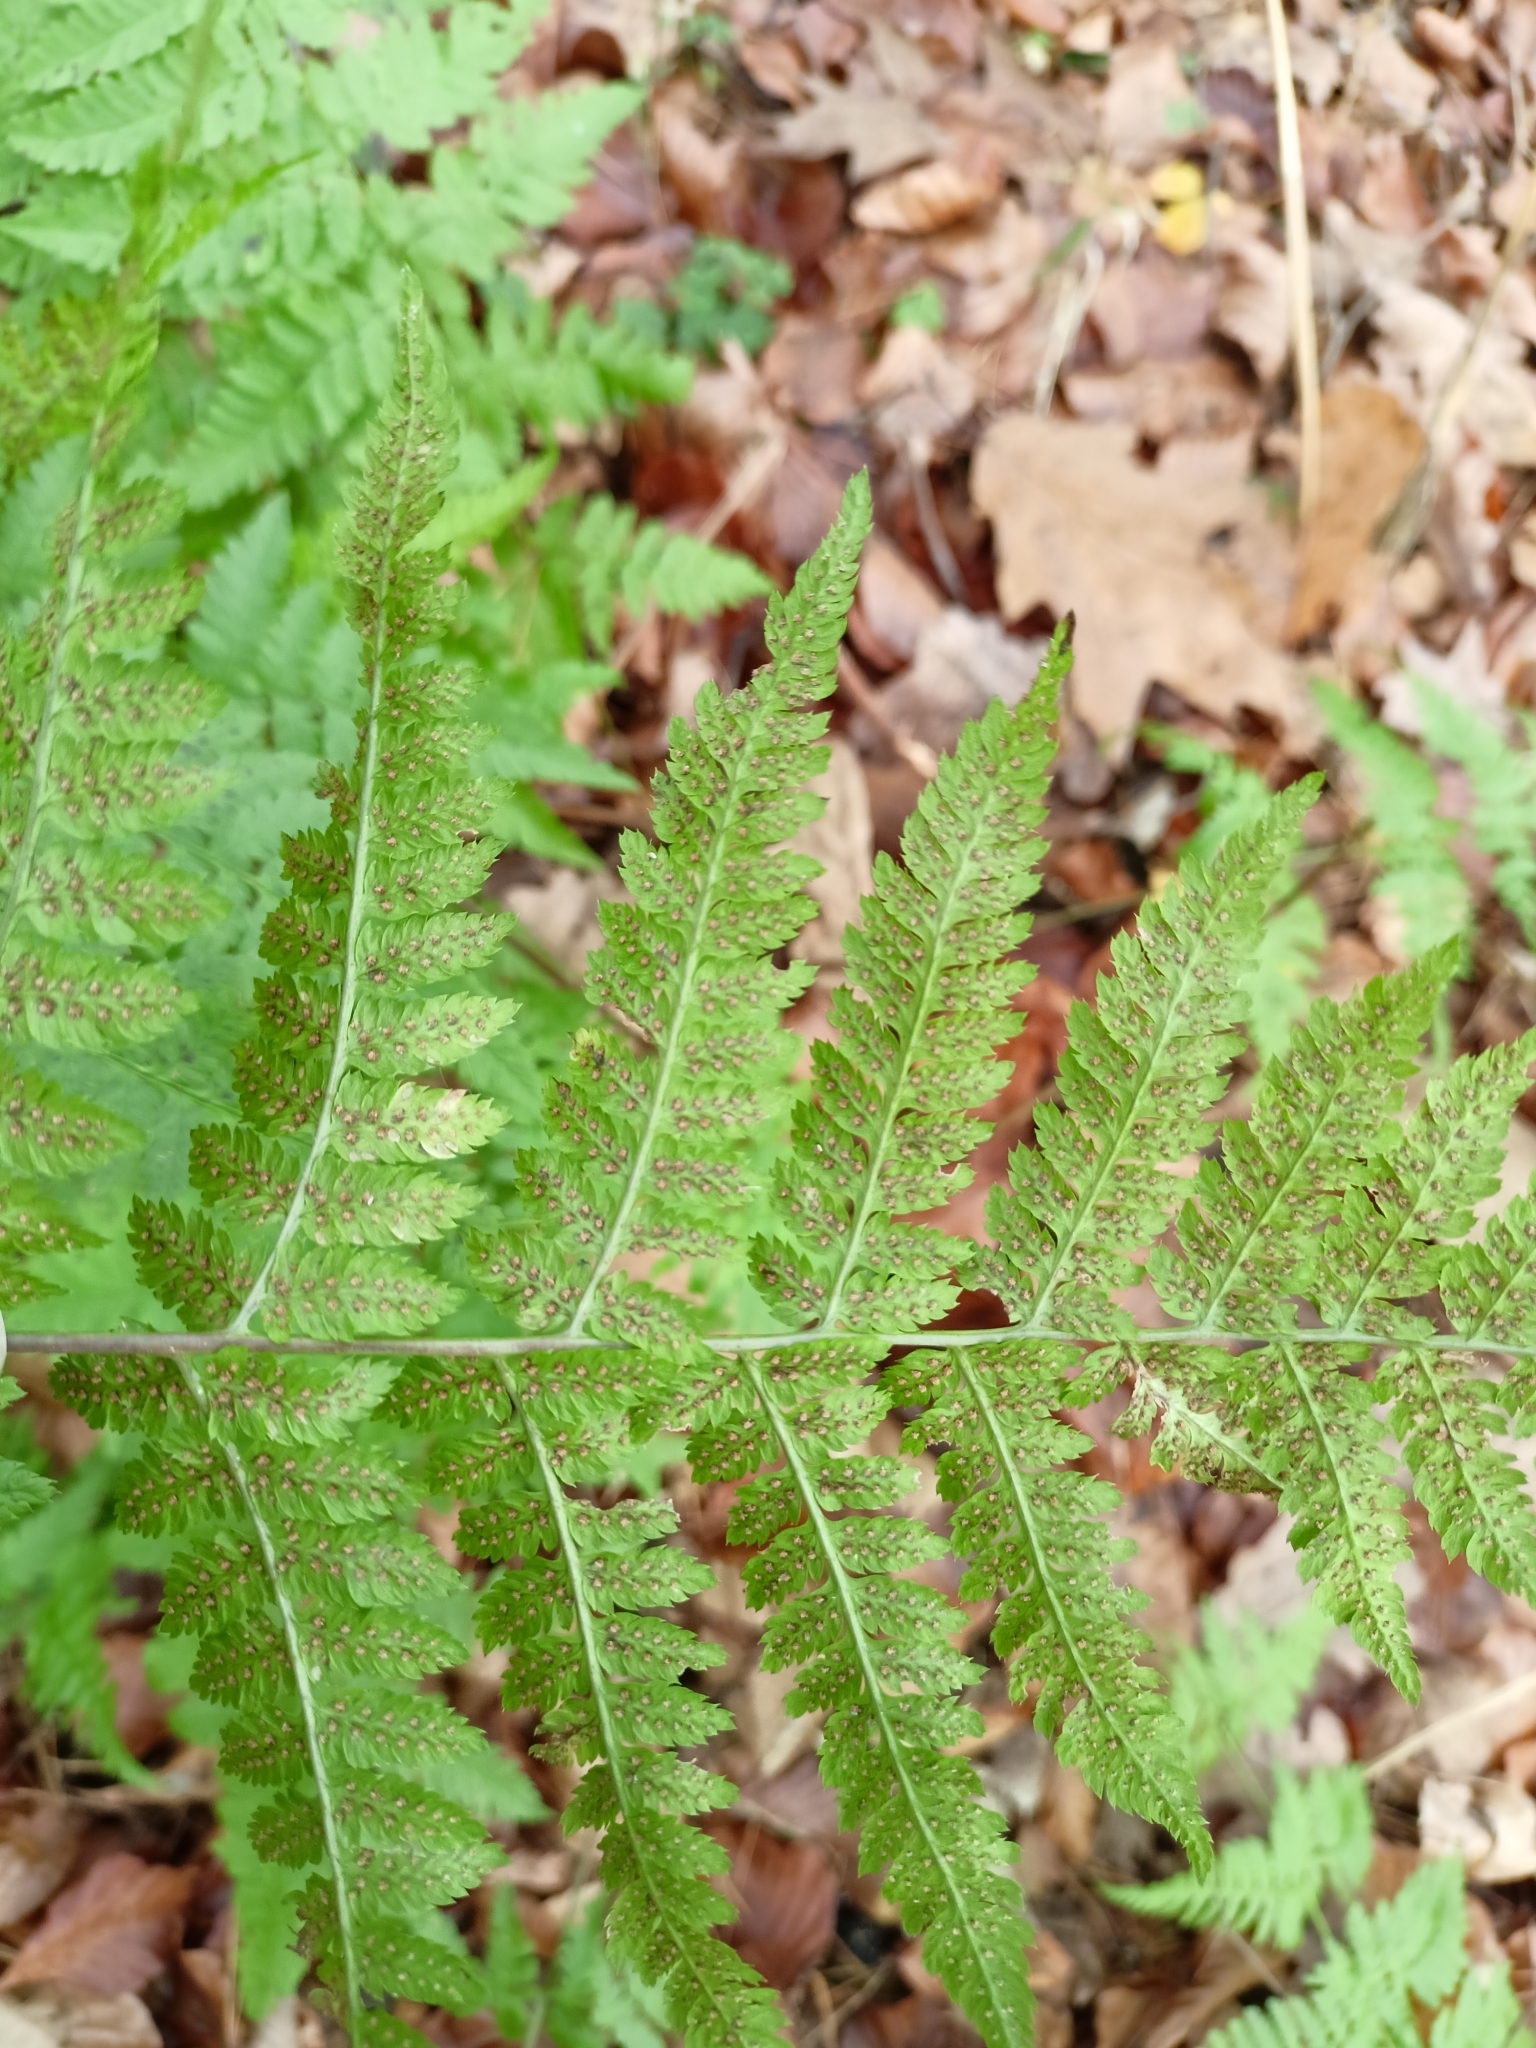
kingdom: Plantae
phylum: Tracheophyta
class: Polypodiopsida
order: Polypodiales
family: Dryopteridaceae
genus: Dryopteris
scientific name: Dryopteris carthusiana
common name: Narrow buckler-fern
